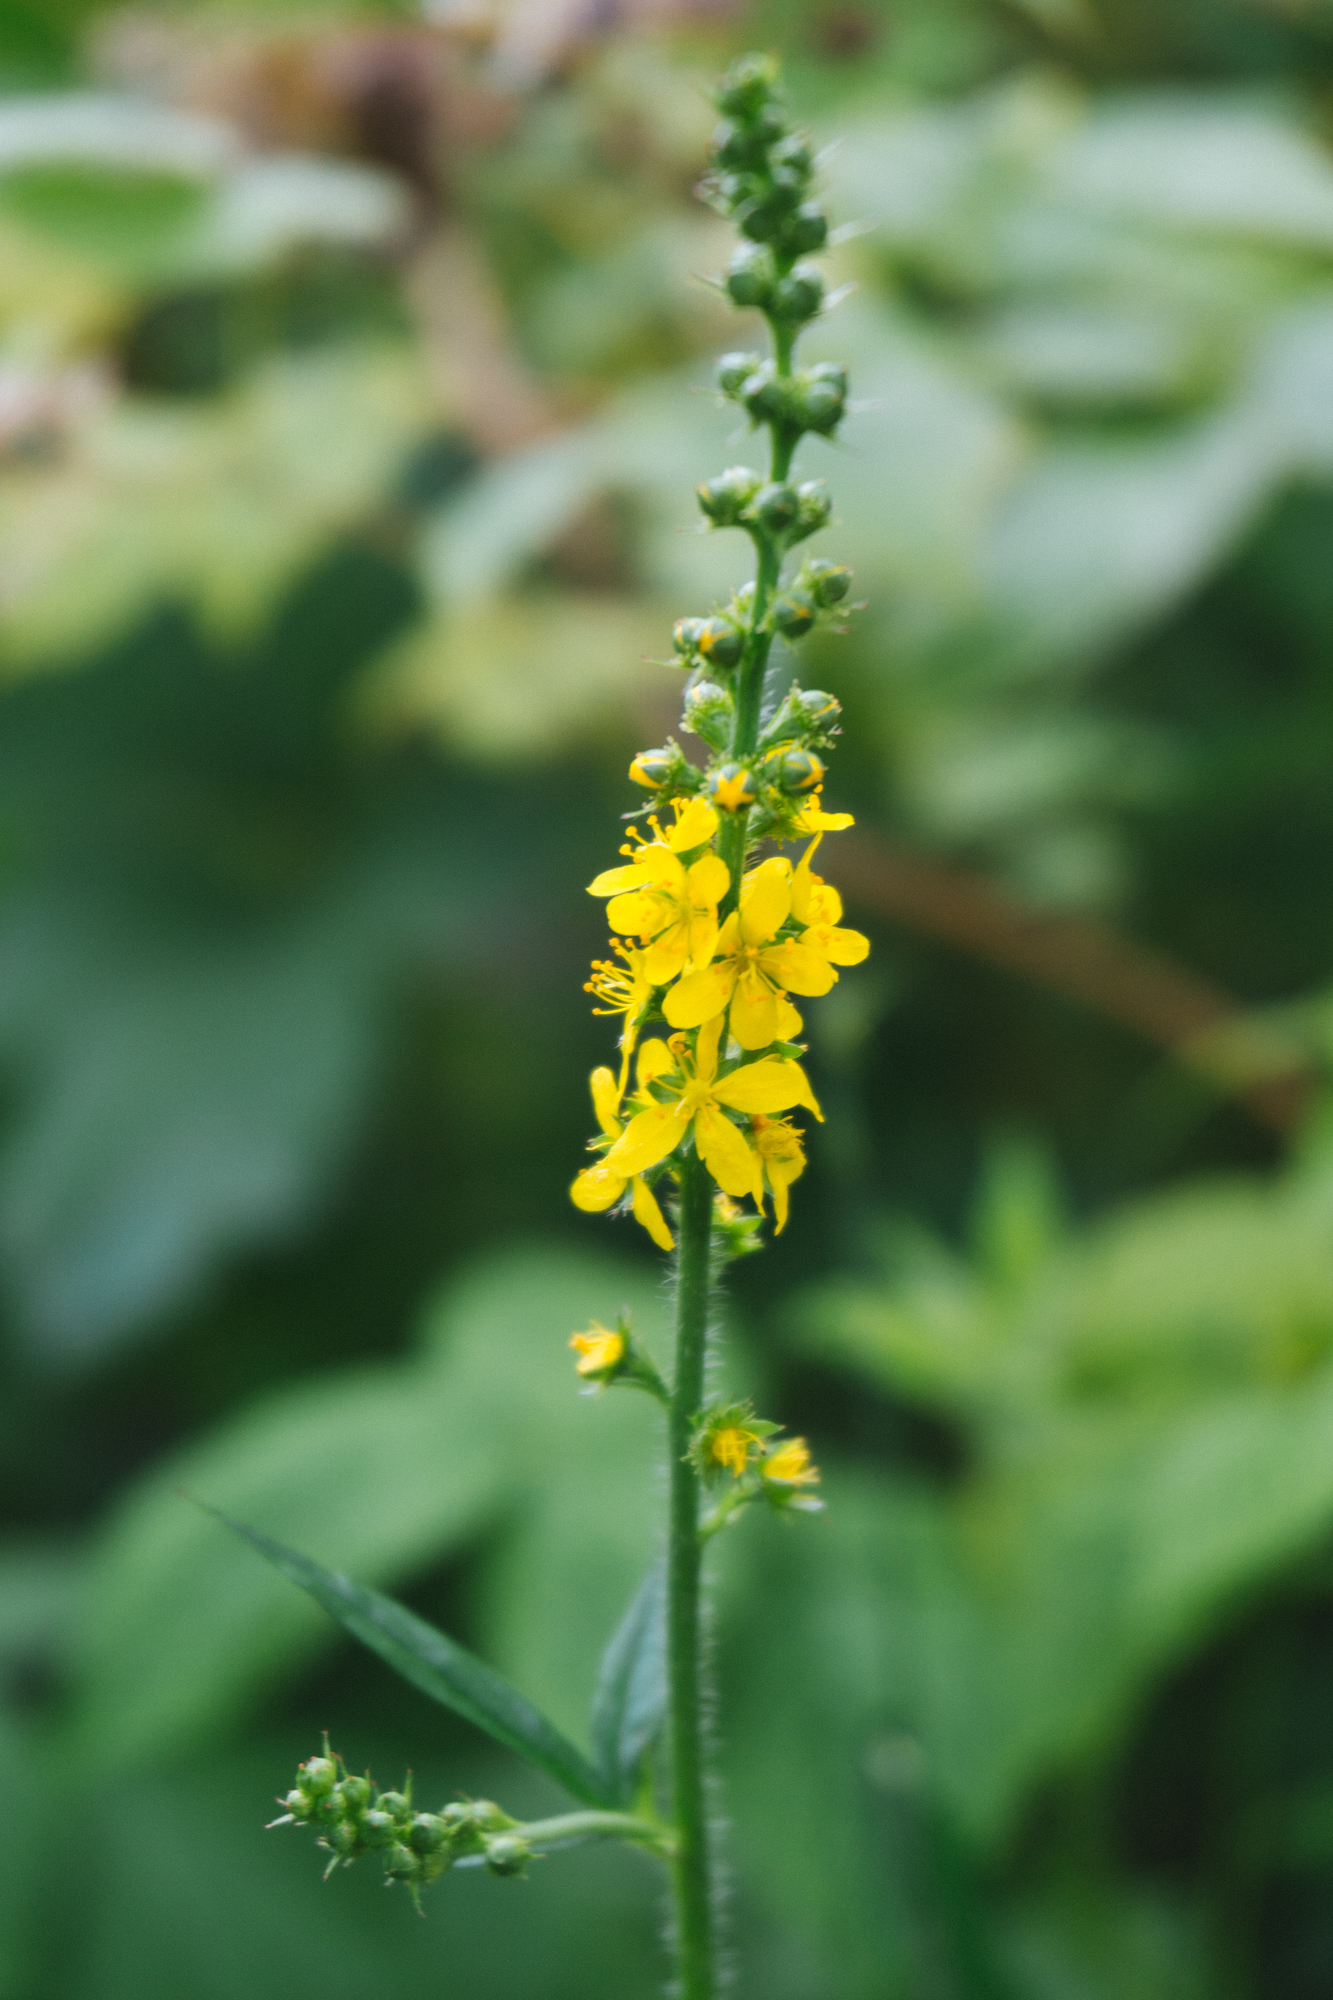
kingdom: Plantae
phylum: Tracheophyta
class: Magnoliopsida
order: Rosales
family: Rosaceae
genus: Agrimonia
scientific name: Agrimonia pilosa
